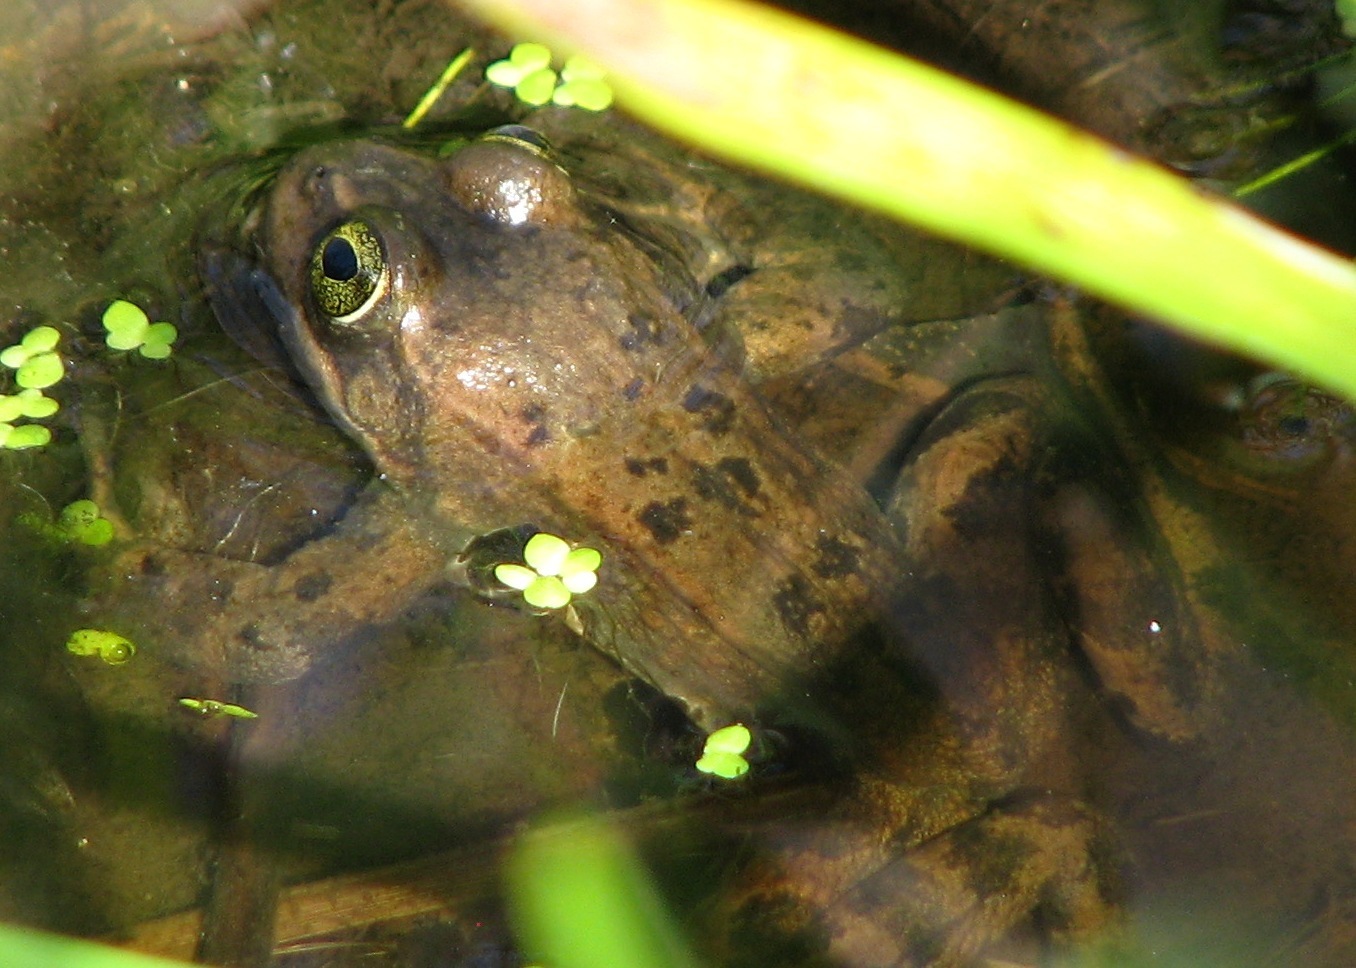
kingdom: Animalia
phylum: Chordata
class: Amphibia
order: Anura
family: Ranidae
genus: Rana
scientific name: Rana pretiosa
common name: Oregon spotted frog
